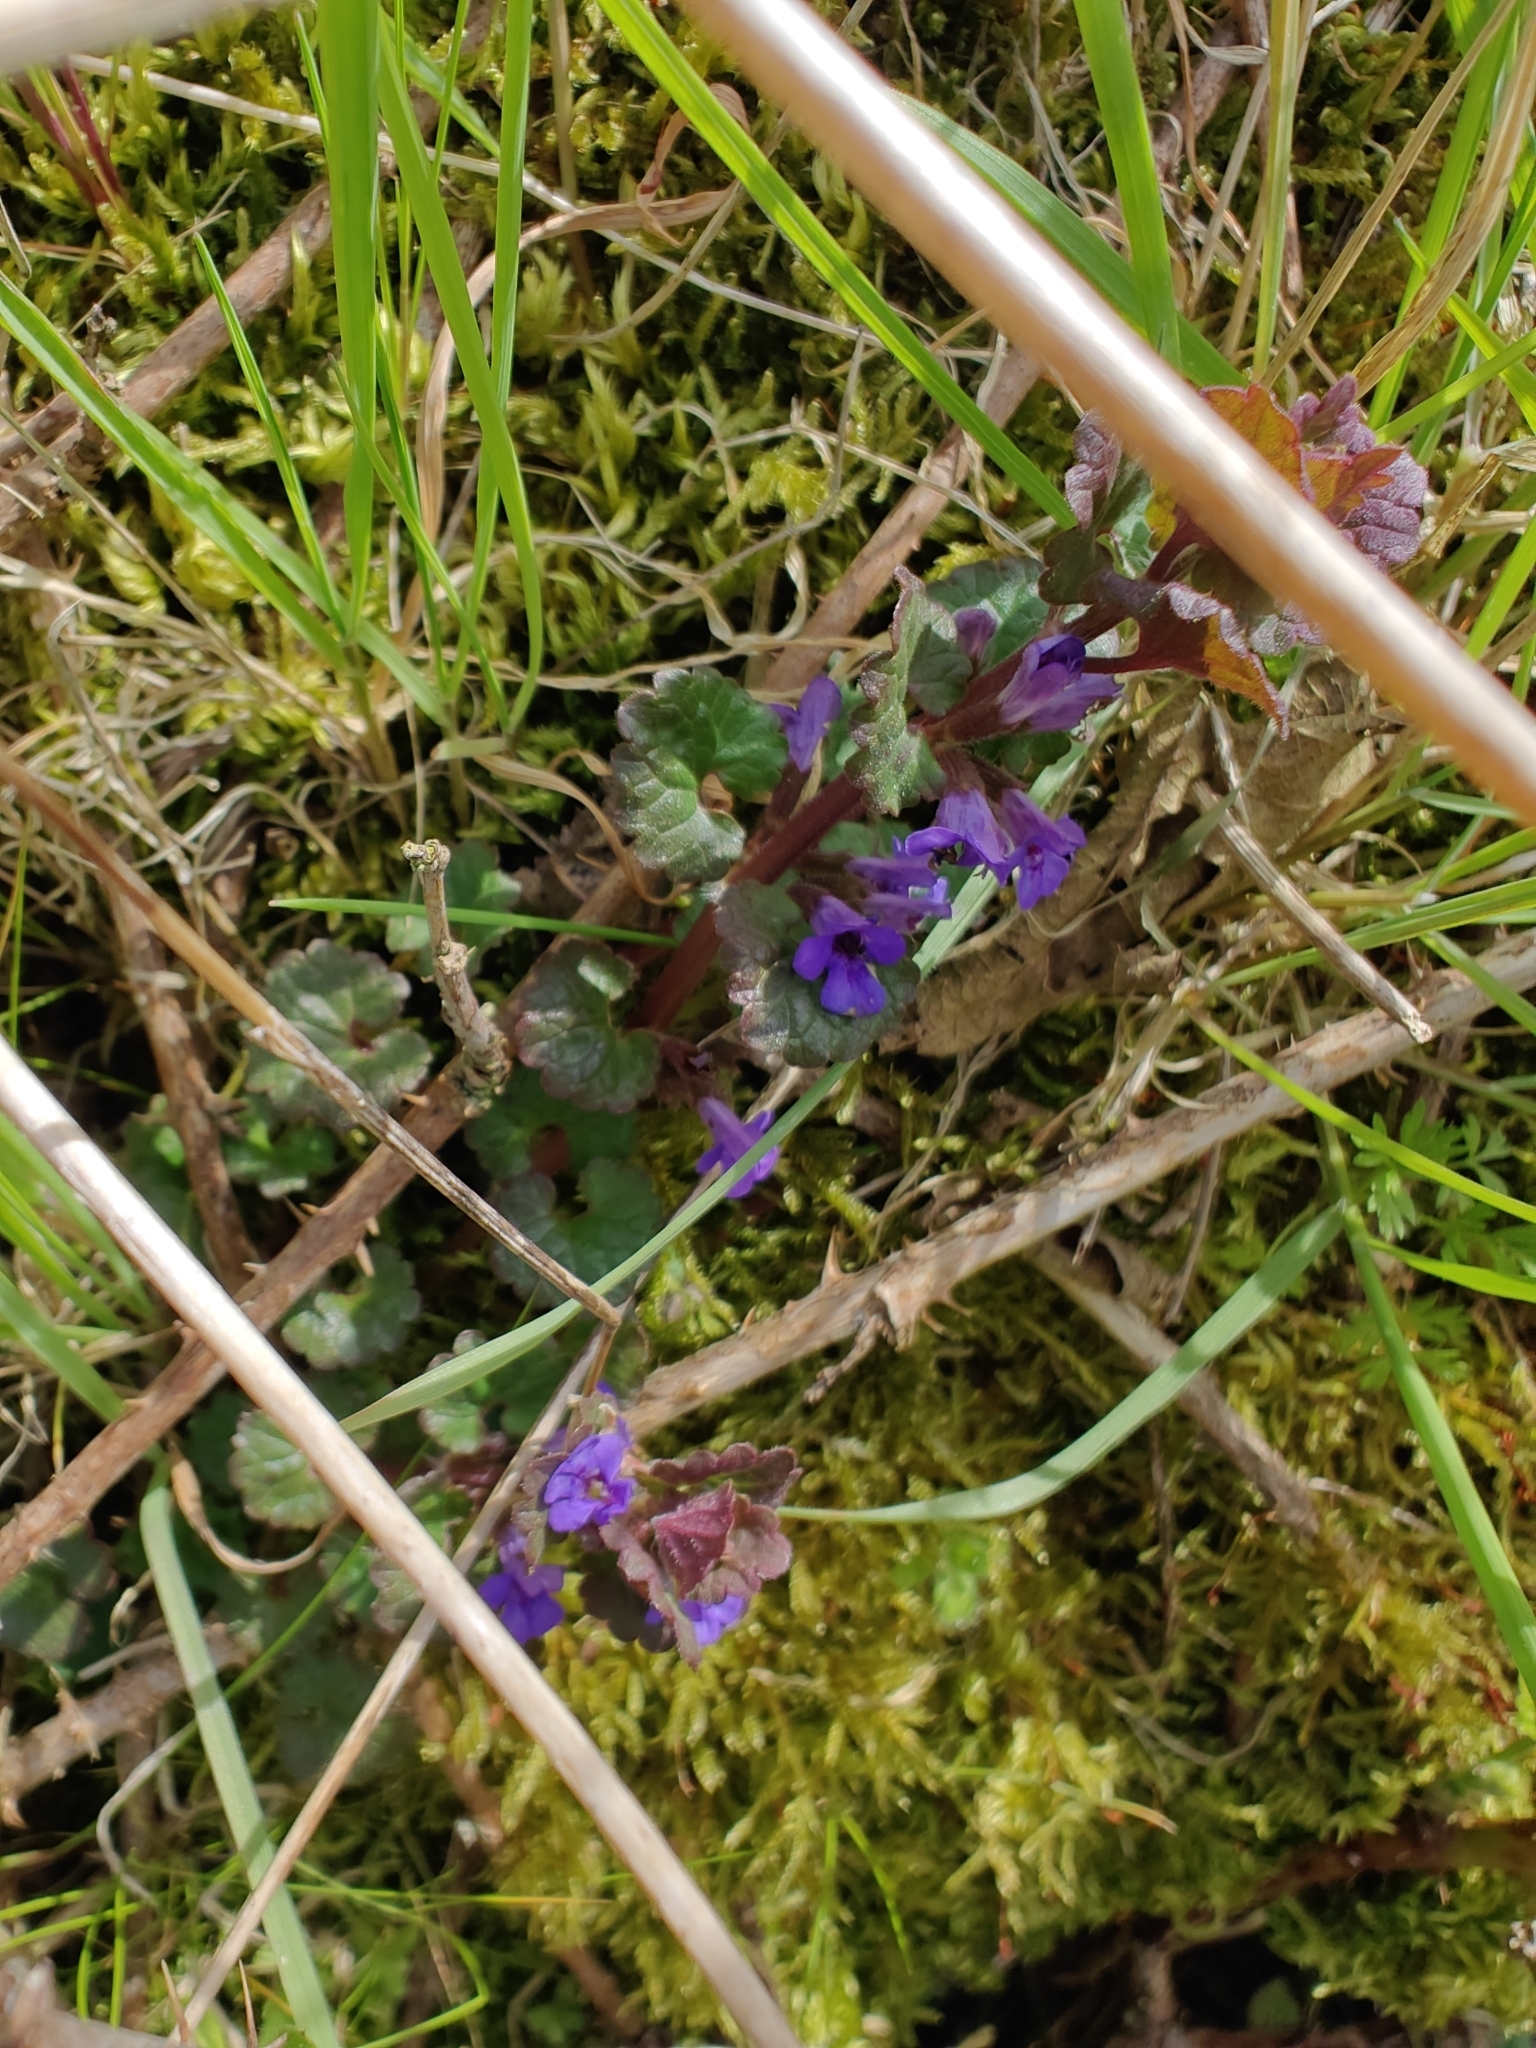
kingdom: Plantae
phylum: Tracheophyta
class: Magnoliopsida
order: Lamiales
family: Lamiaceae
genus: Glechoma
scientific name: Glechoma hederacea
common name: Ground ivy
